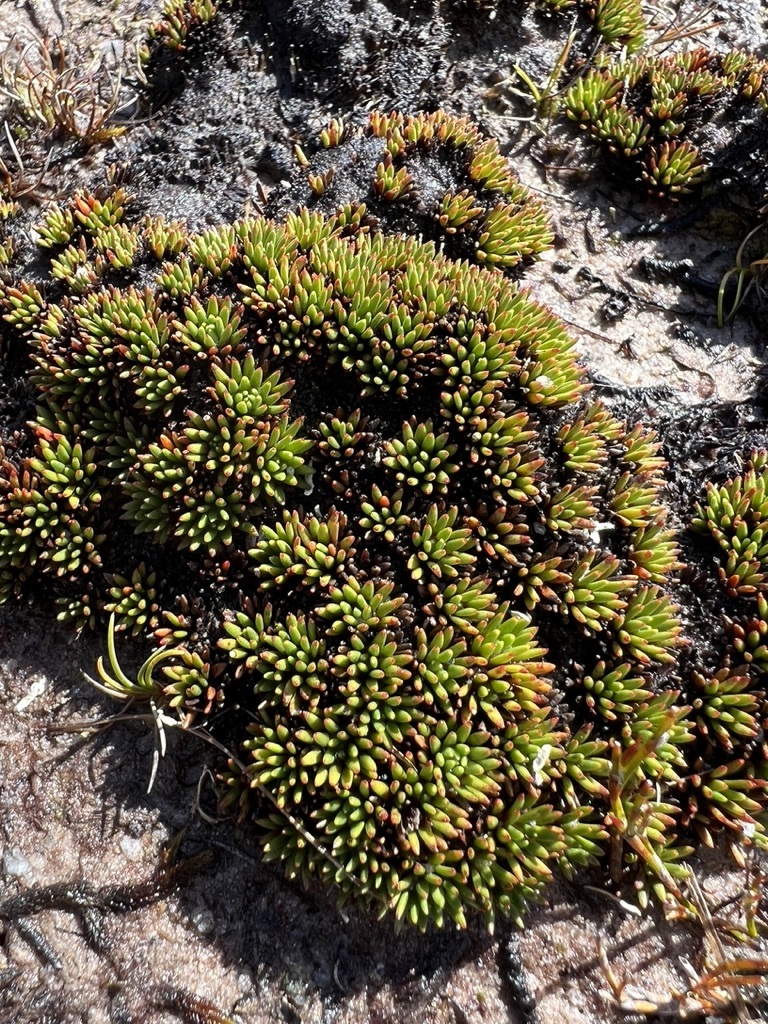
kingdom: Plantae
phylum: Tracheophyta
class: Magnoliopsida
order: Asterales
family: Stylidiaceae
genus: Donatia
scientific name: Donatia novae-zelandiae
